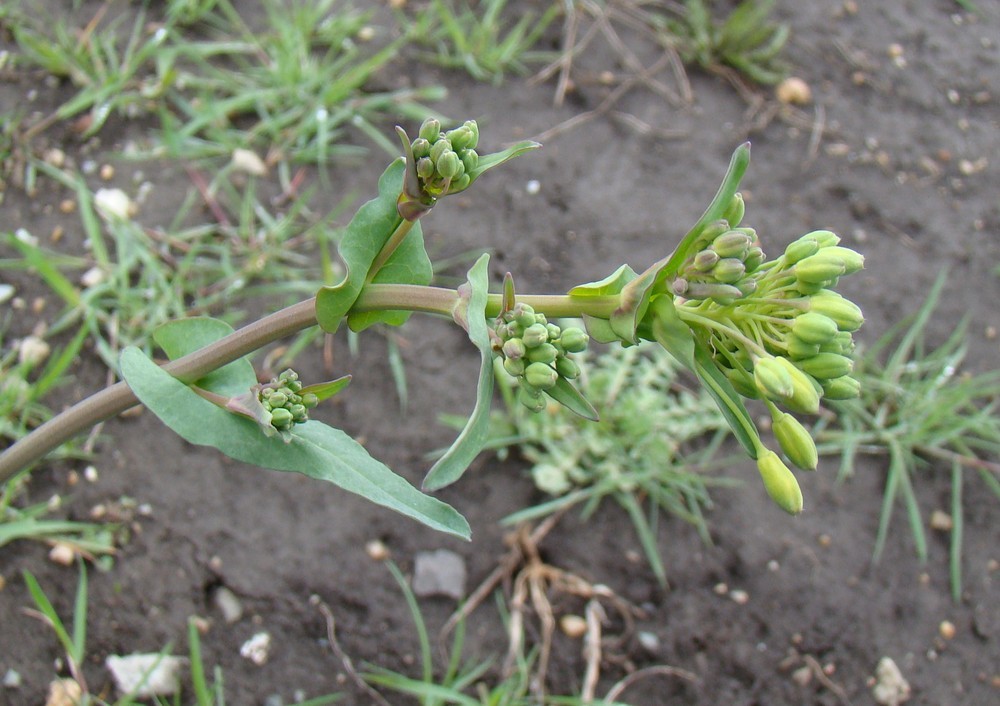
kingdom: Plantae
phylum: Tracheophyta
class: Magnoliopsida
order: Brassicales
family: Brassicaceae
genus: Brassica
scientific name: Brassica rapa
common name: Field mustard
